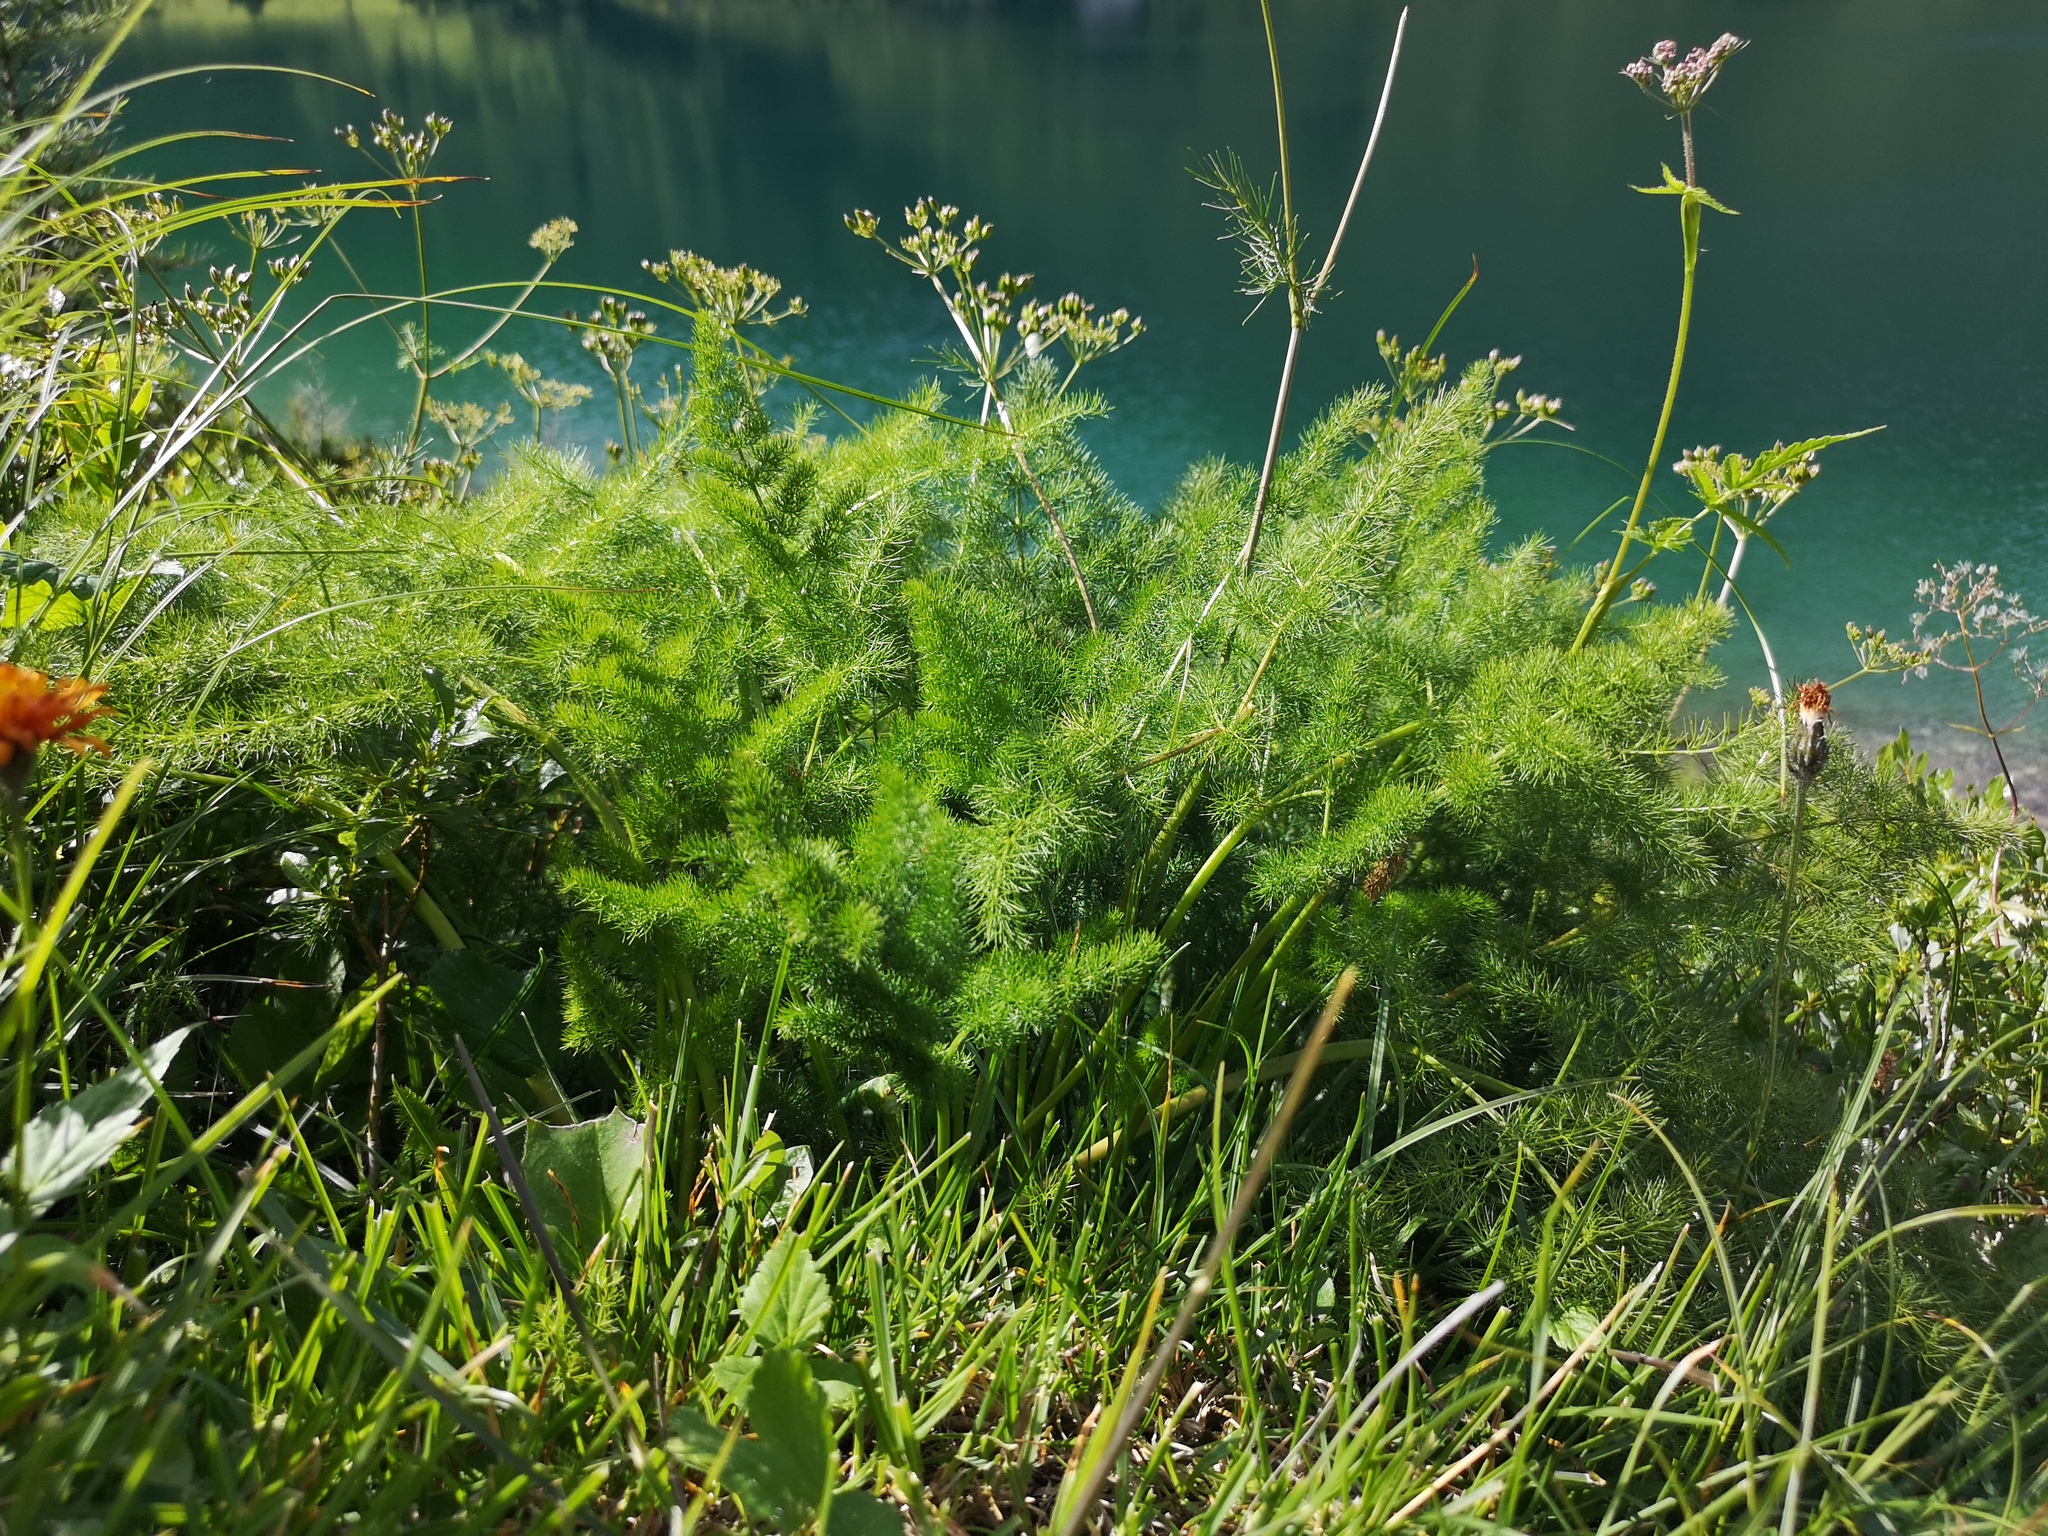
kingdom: Plantae
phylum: Tracheophyta
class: Magnoliopsida
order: Apiales
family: Apiaceae
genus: Meum
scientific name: Meum athamanticum
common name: Spignel
